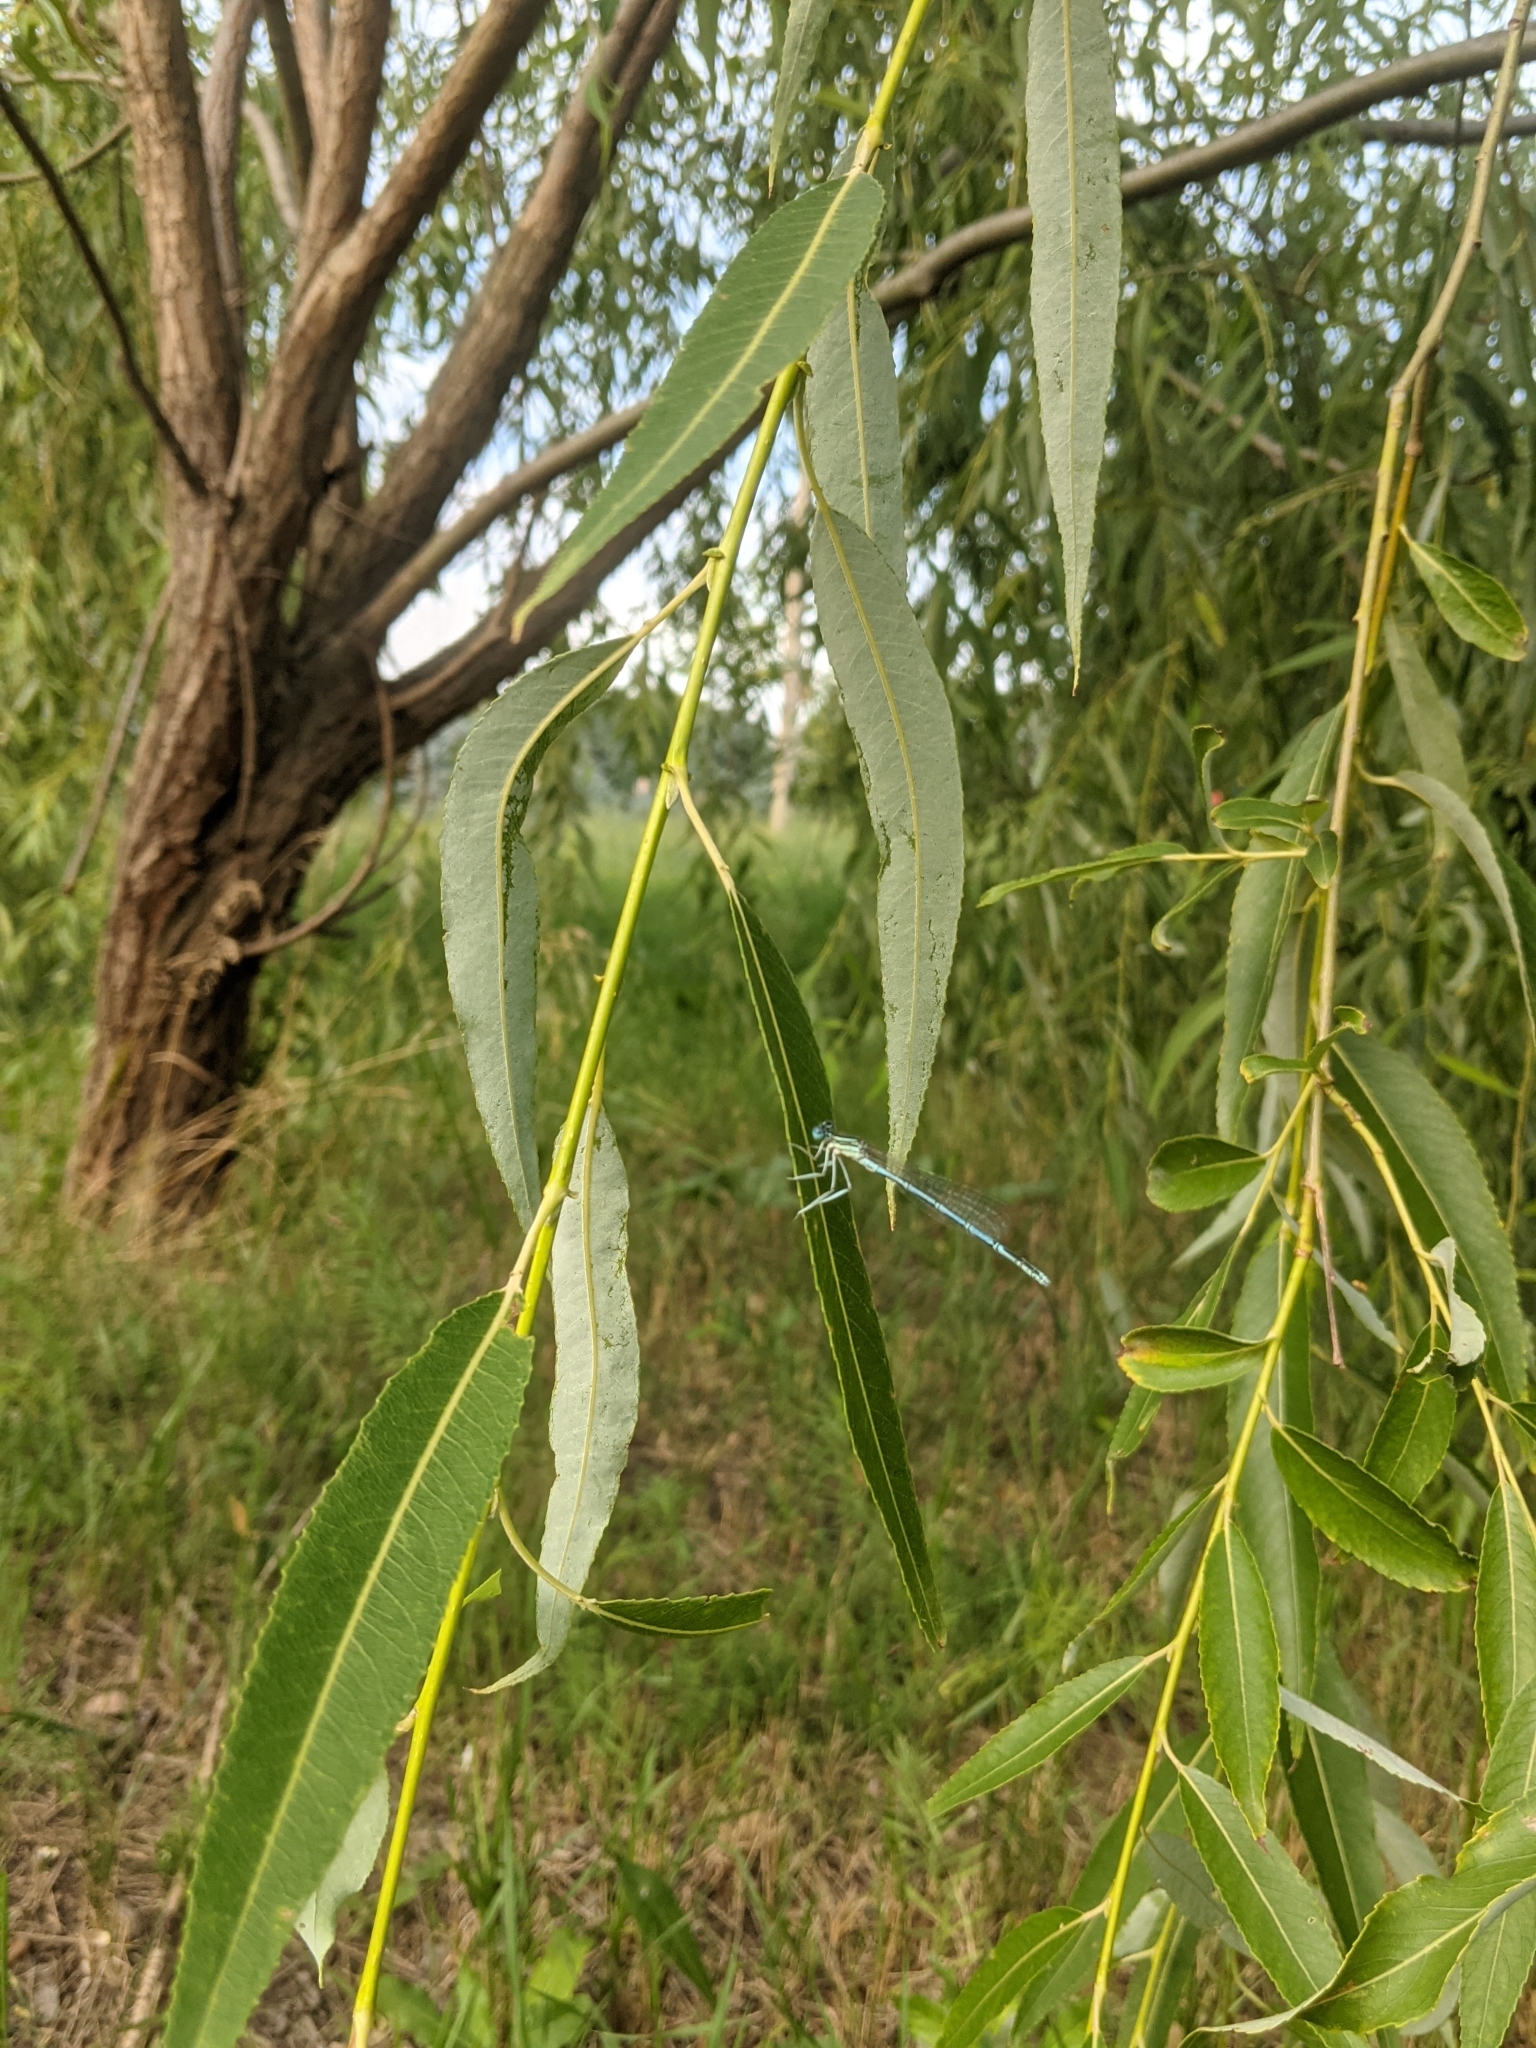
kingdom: Animalia
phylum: Arthropoda
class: Insecta
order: Odonata
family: Platycnemididae
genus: Platycnemis
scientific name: Platycnemis pennipes
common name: White-legged damselfly
